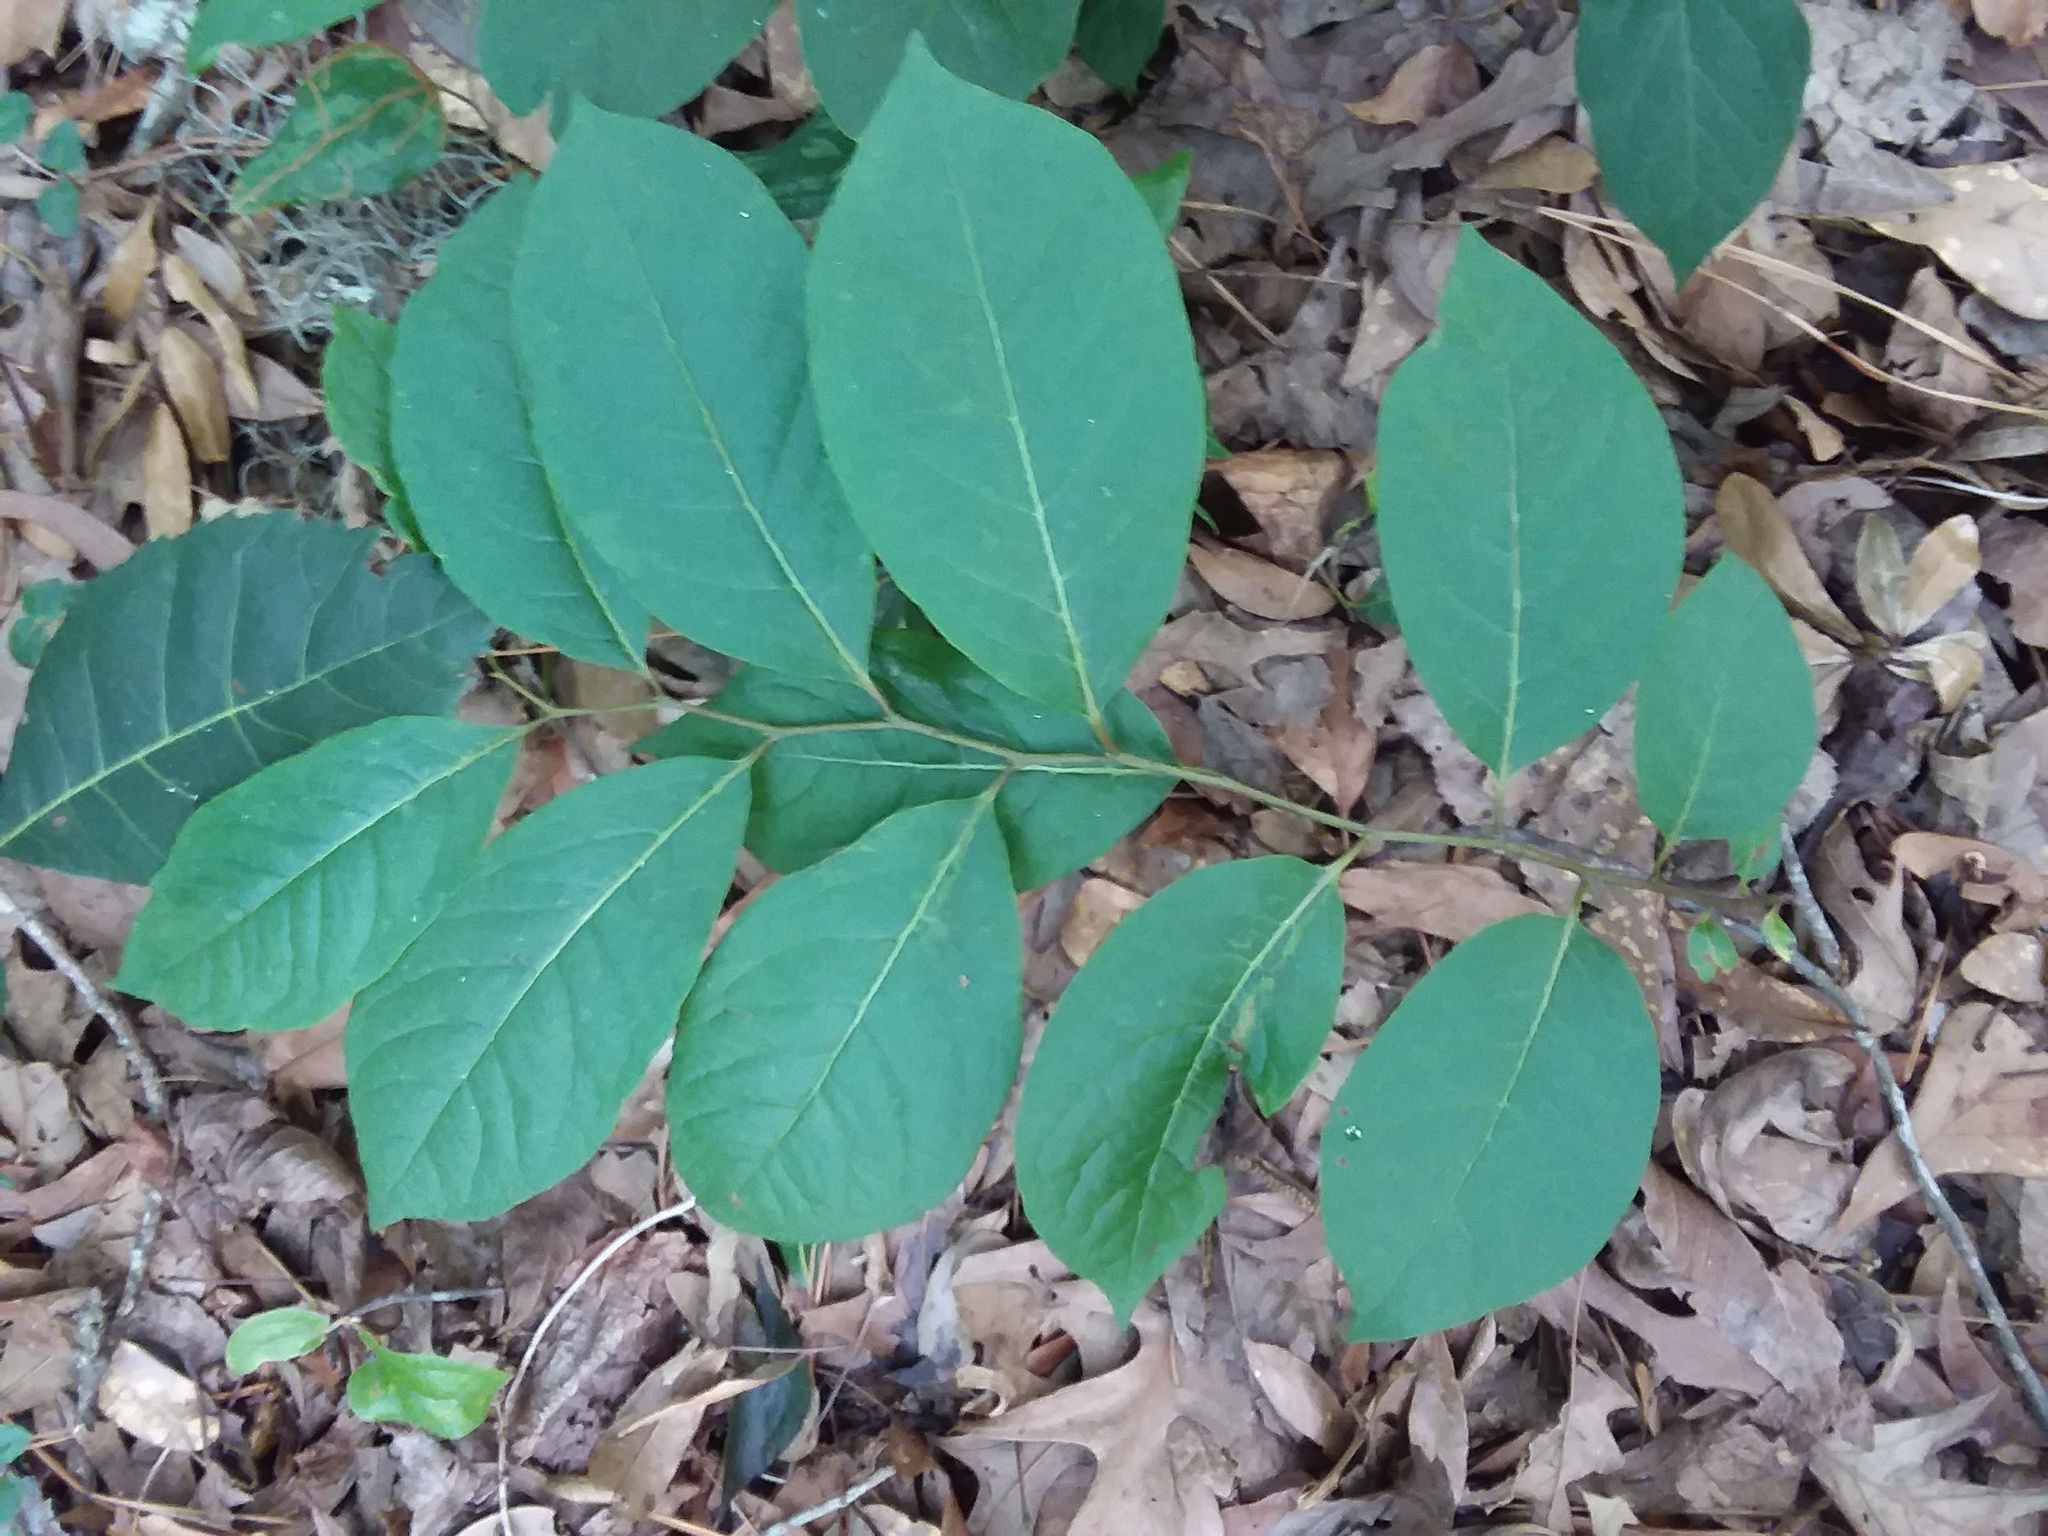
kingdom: Plantae
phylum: Tracheophyta
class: Magnoliopsida
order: Ericales
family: Ebenaceae
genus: Diospyros
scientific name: Diospyros virginiana
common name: Persimmon
